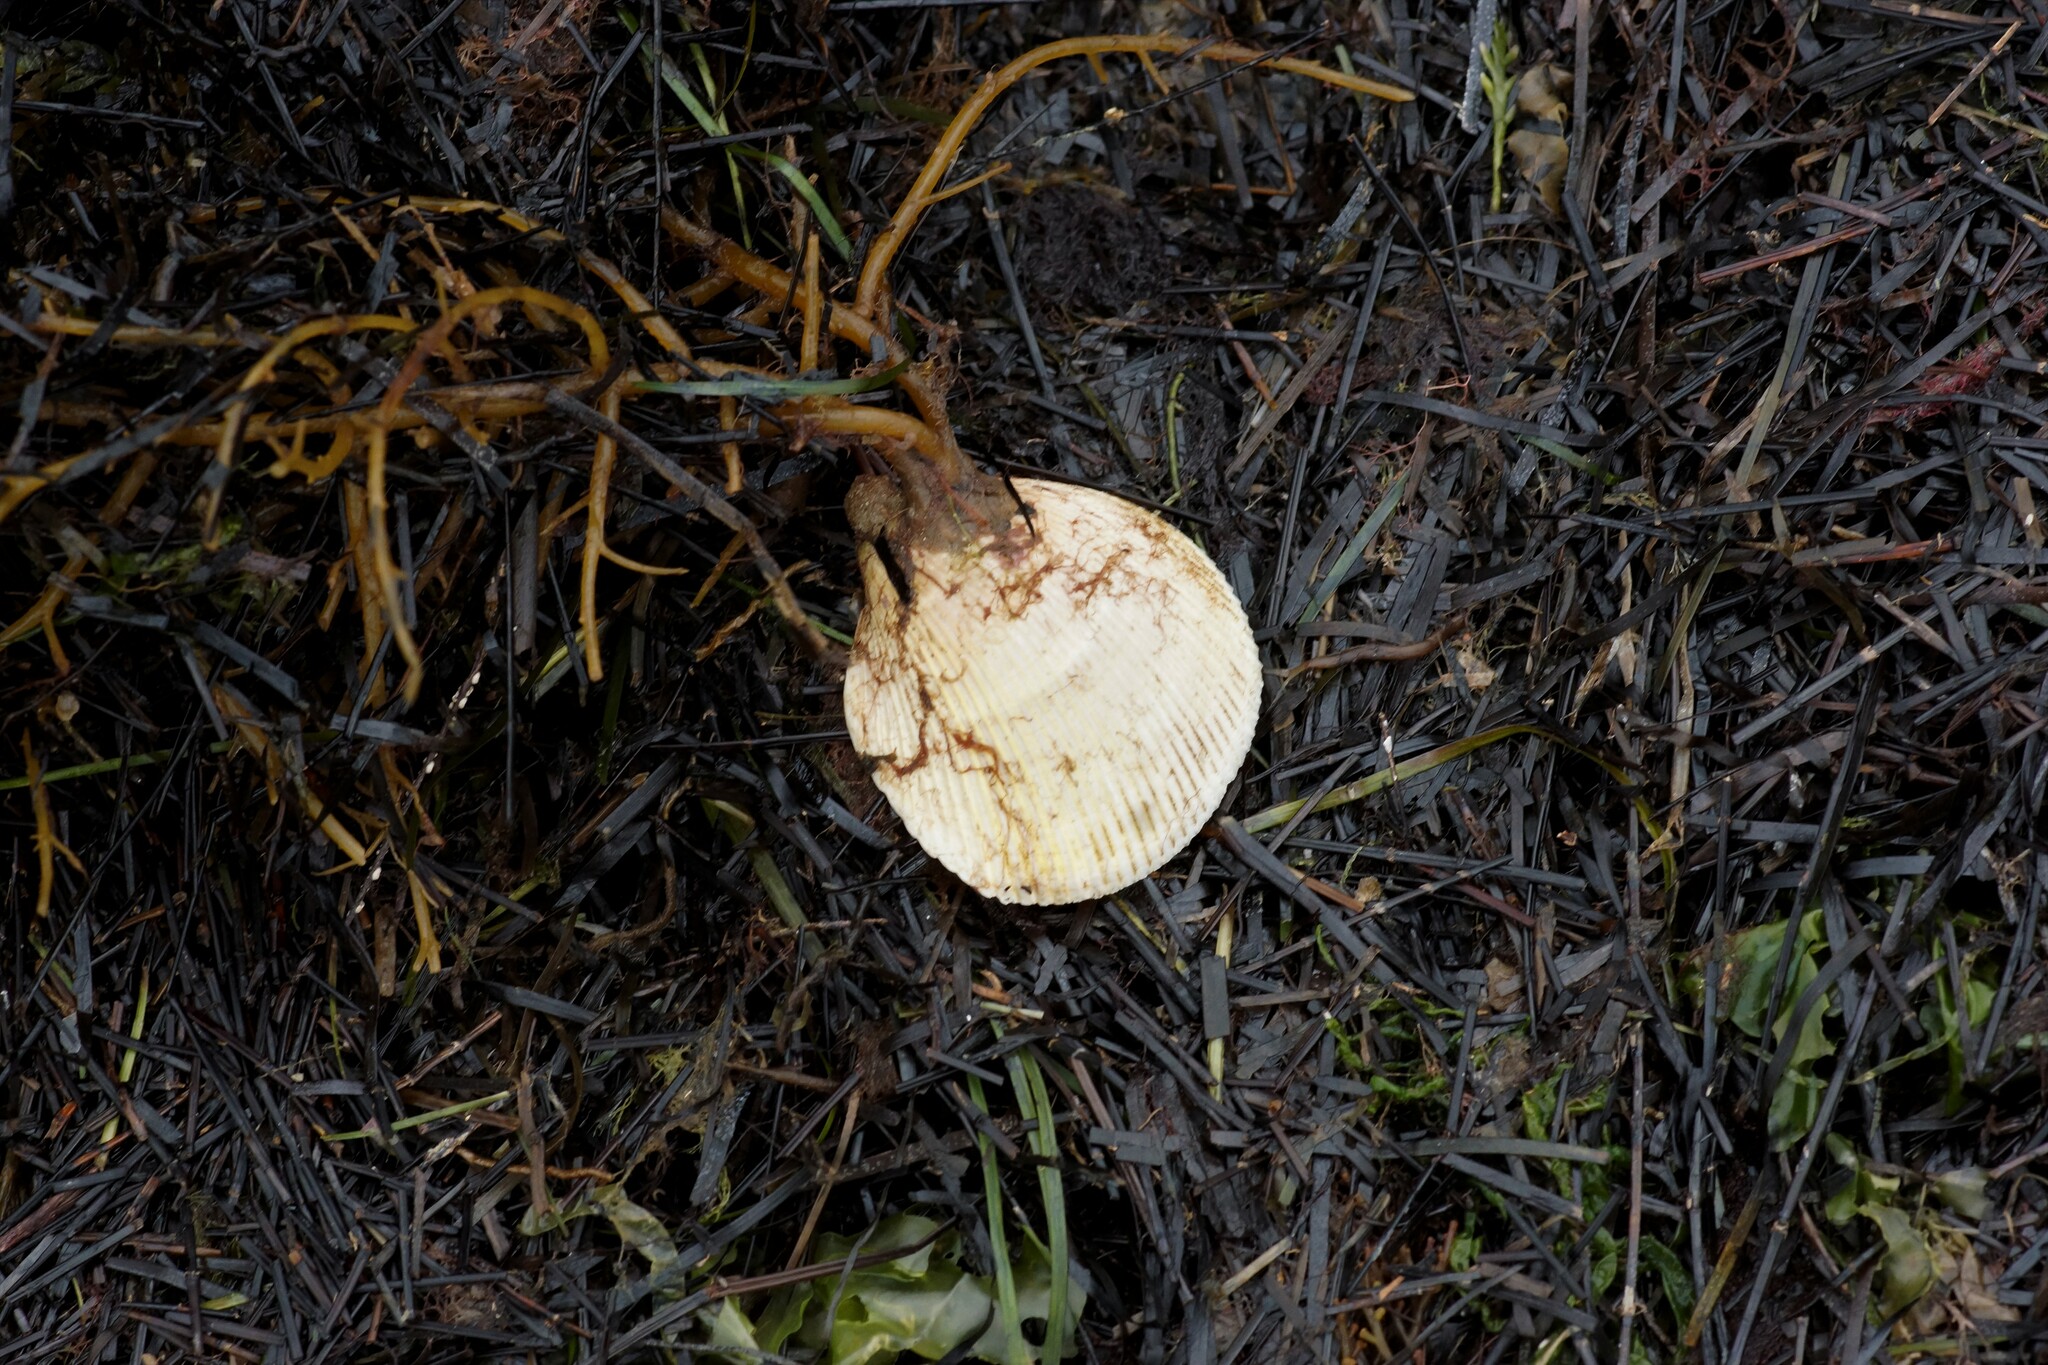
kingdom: Animalia
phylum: Mollusca
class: Bivalvia
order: Cardiida
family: Cardiidae
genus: Fulvia
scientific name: Fulvia tenuicostata
